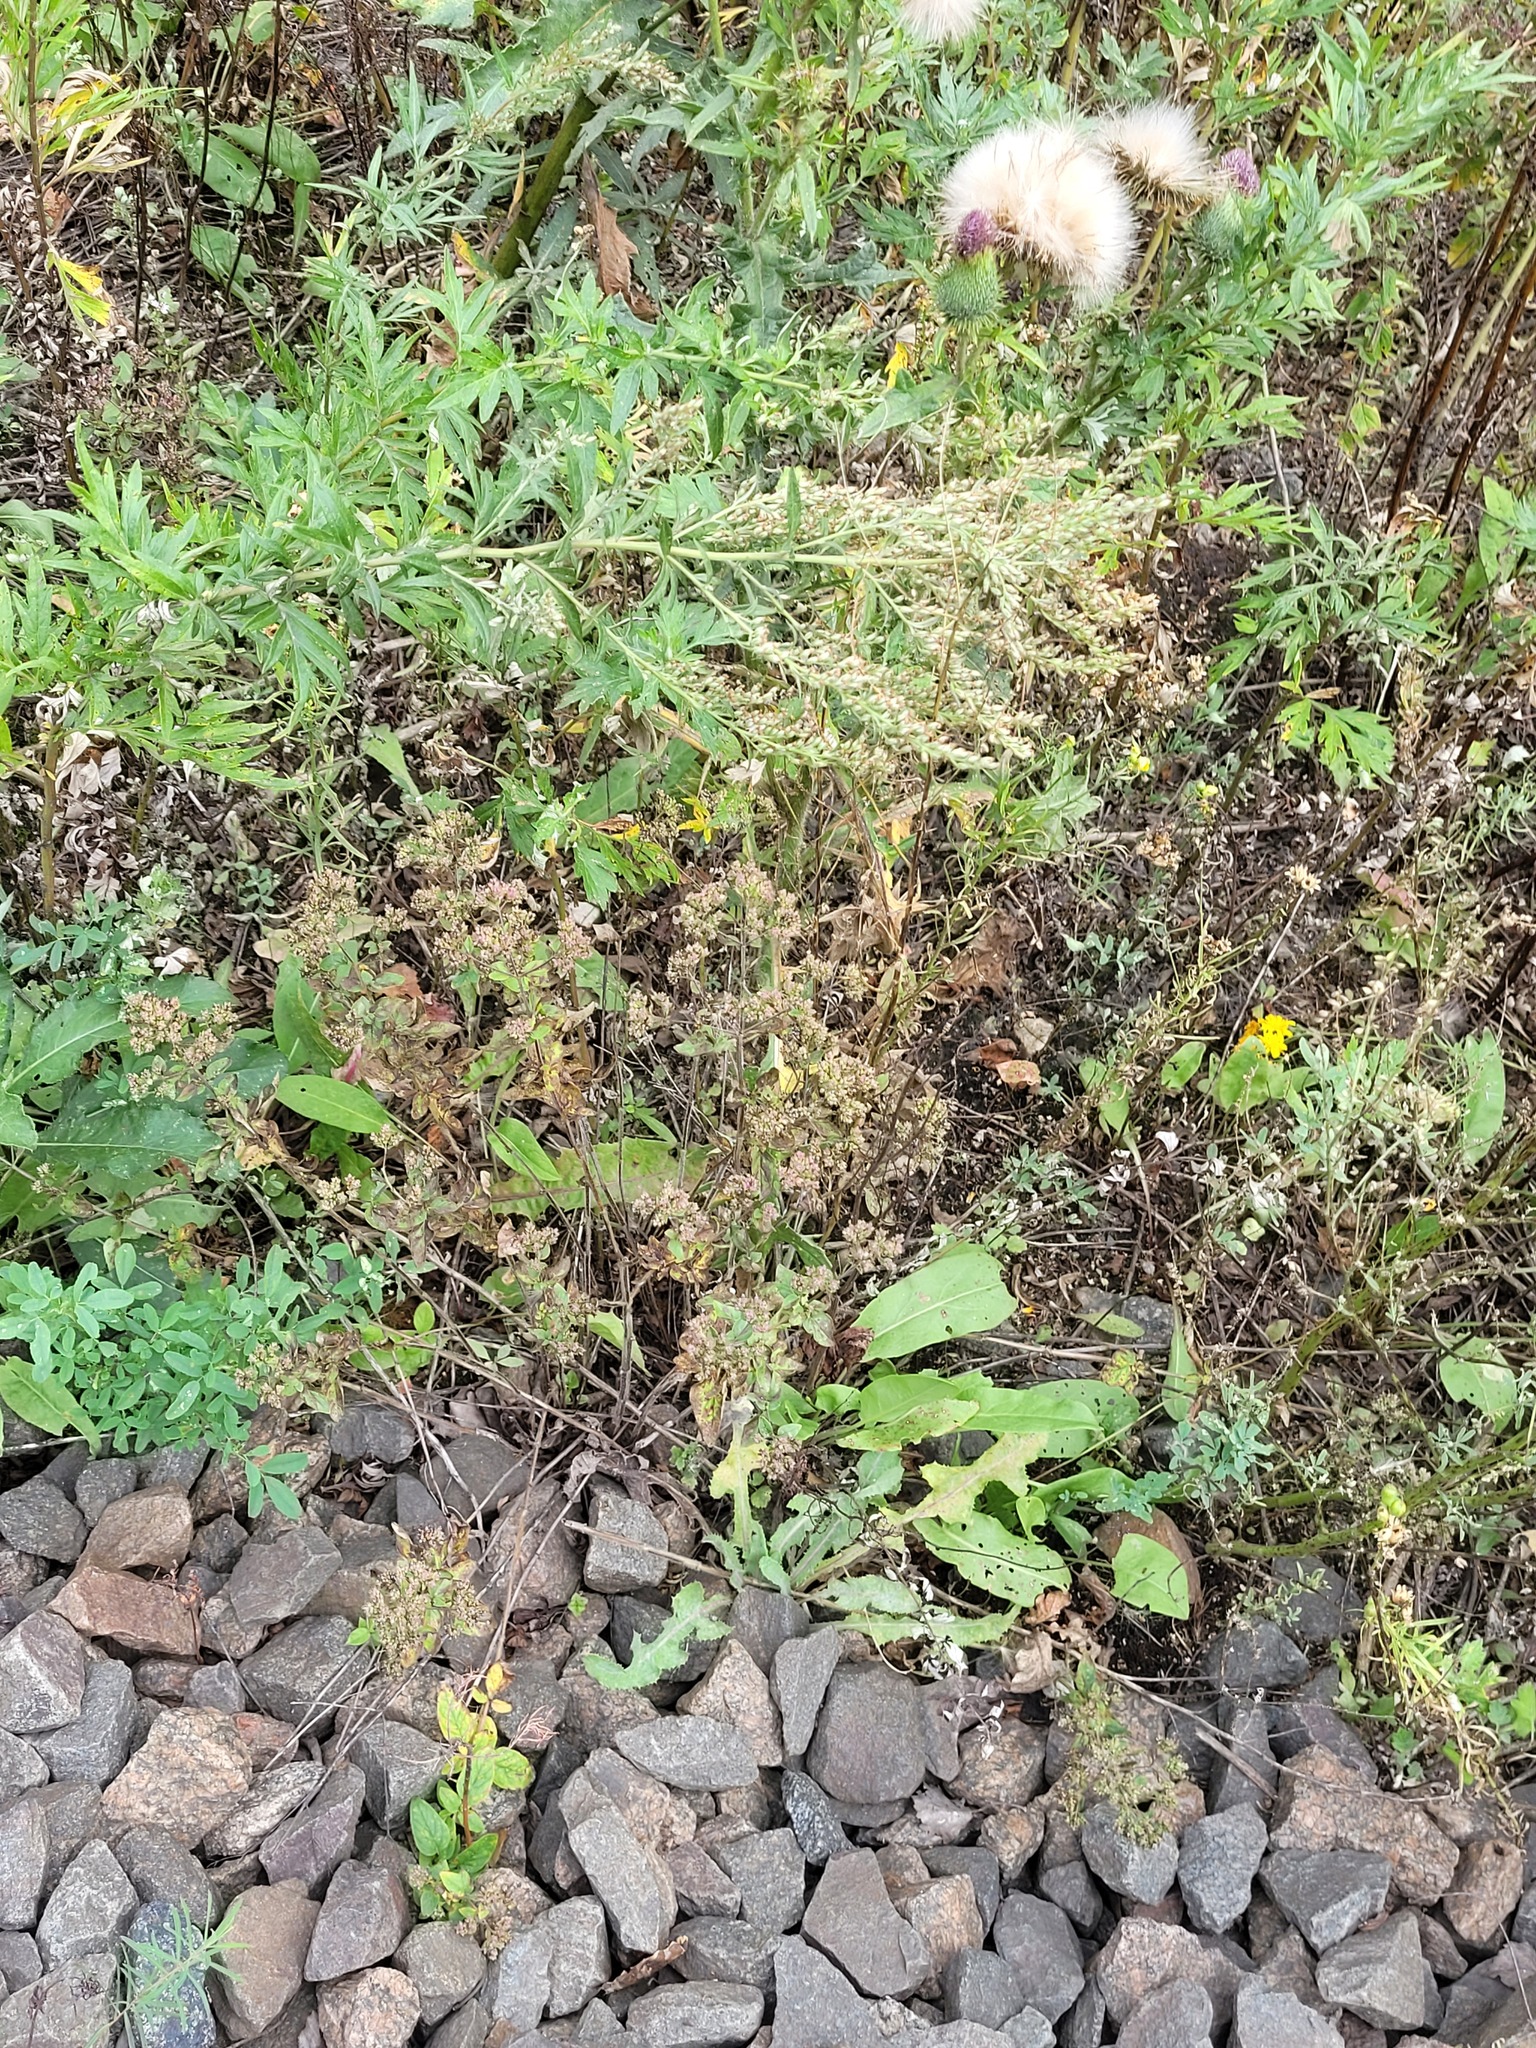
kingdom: Plantae
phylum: Tracheophyta
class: Magnoliopsida
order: Lamiales
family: Lamiaceae
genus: Origanum
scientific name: Origanum vulgare
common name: Wild marjoram
